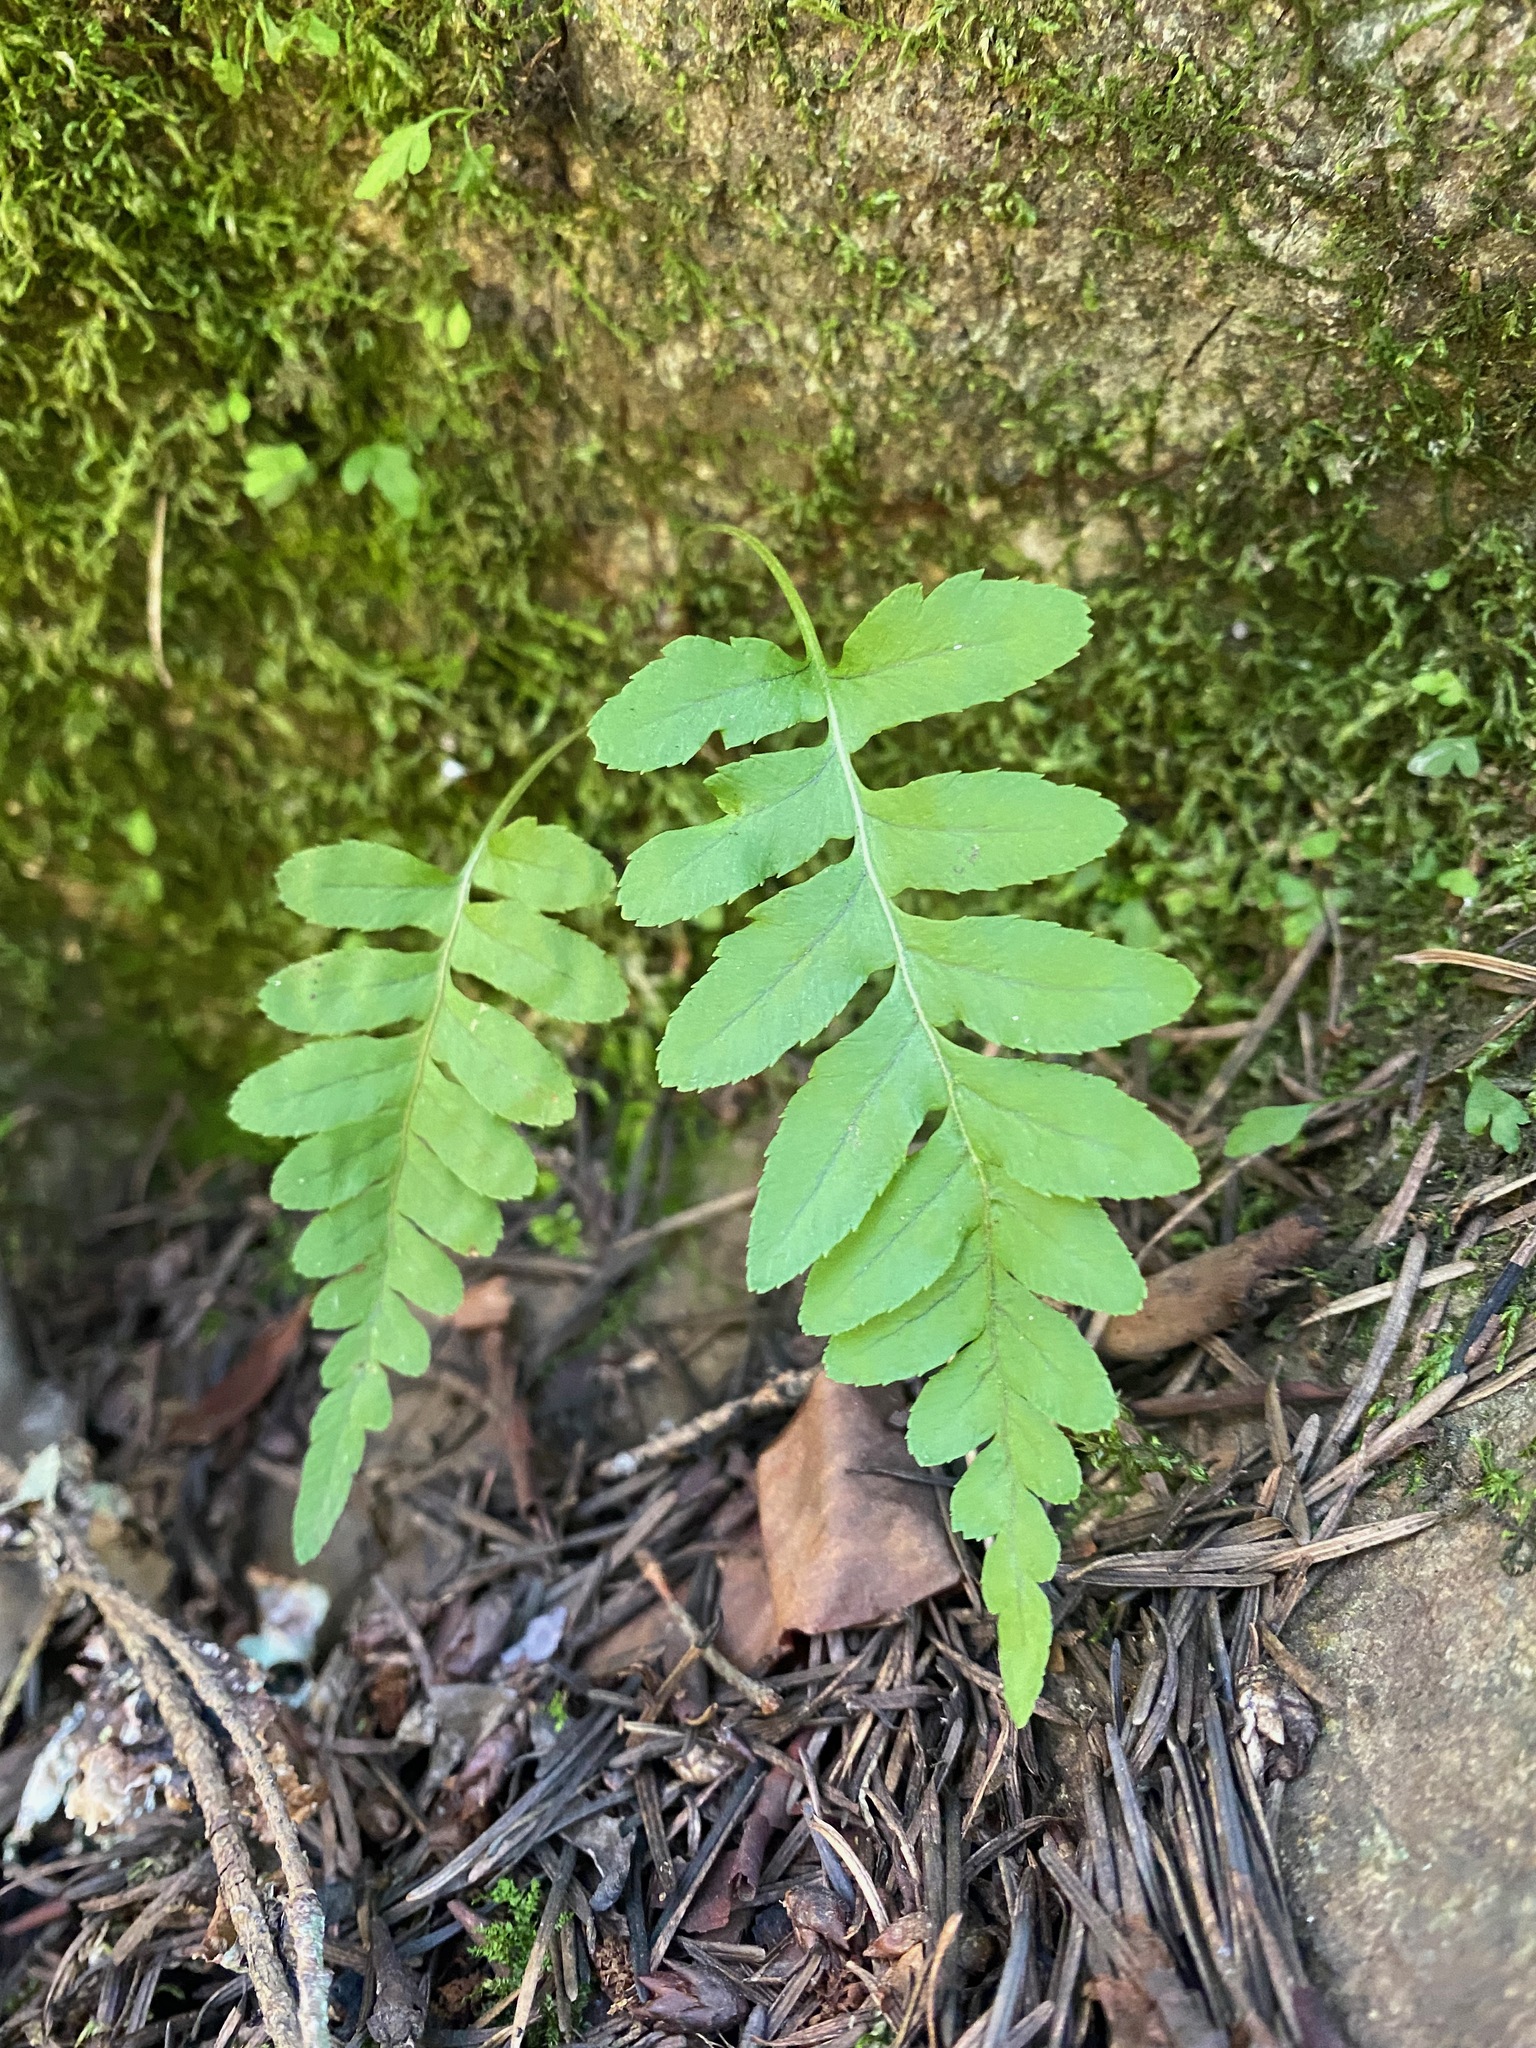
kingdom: Plantae
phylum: Tracheophyta
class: Polypodiopsida
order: Polypodiales
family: Polypodiaceae
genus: Polypodium
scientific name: Polypodium glycyrrhiza
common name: Licorice fern
